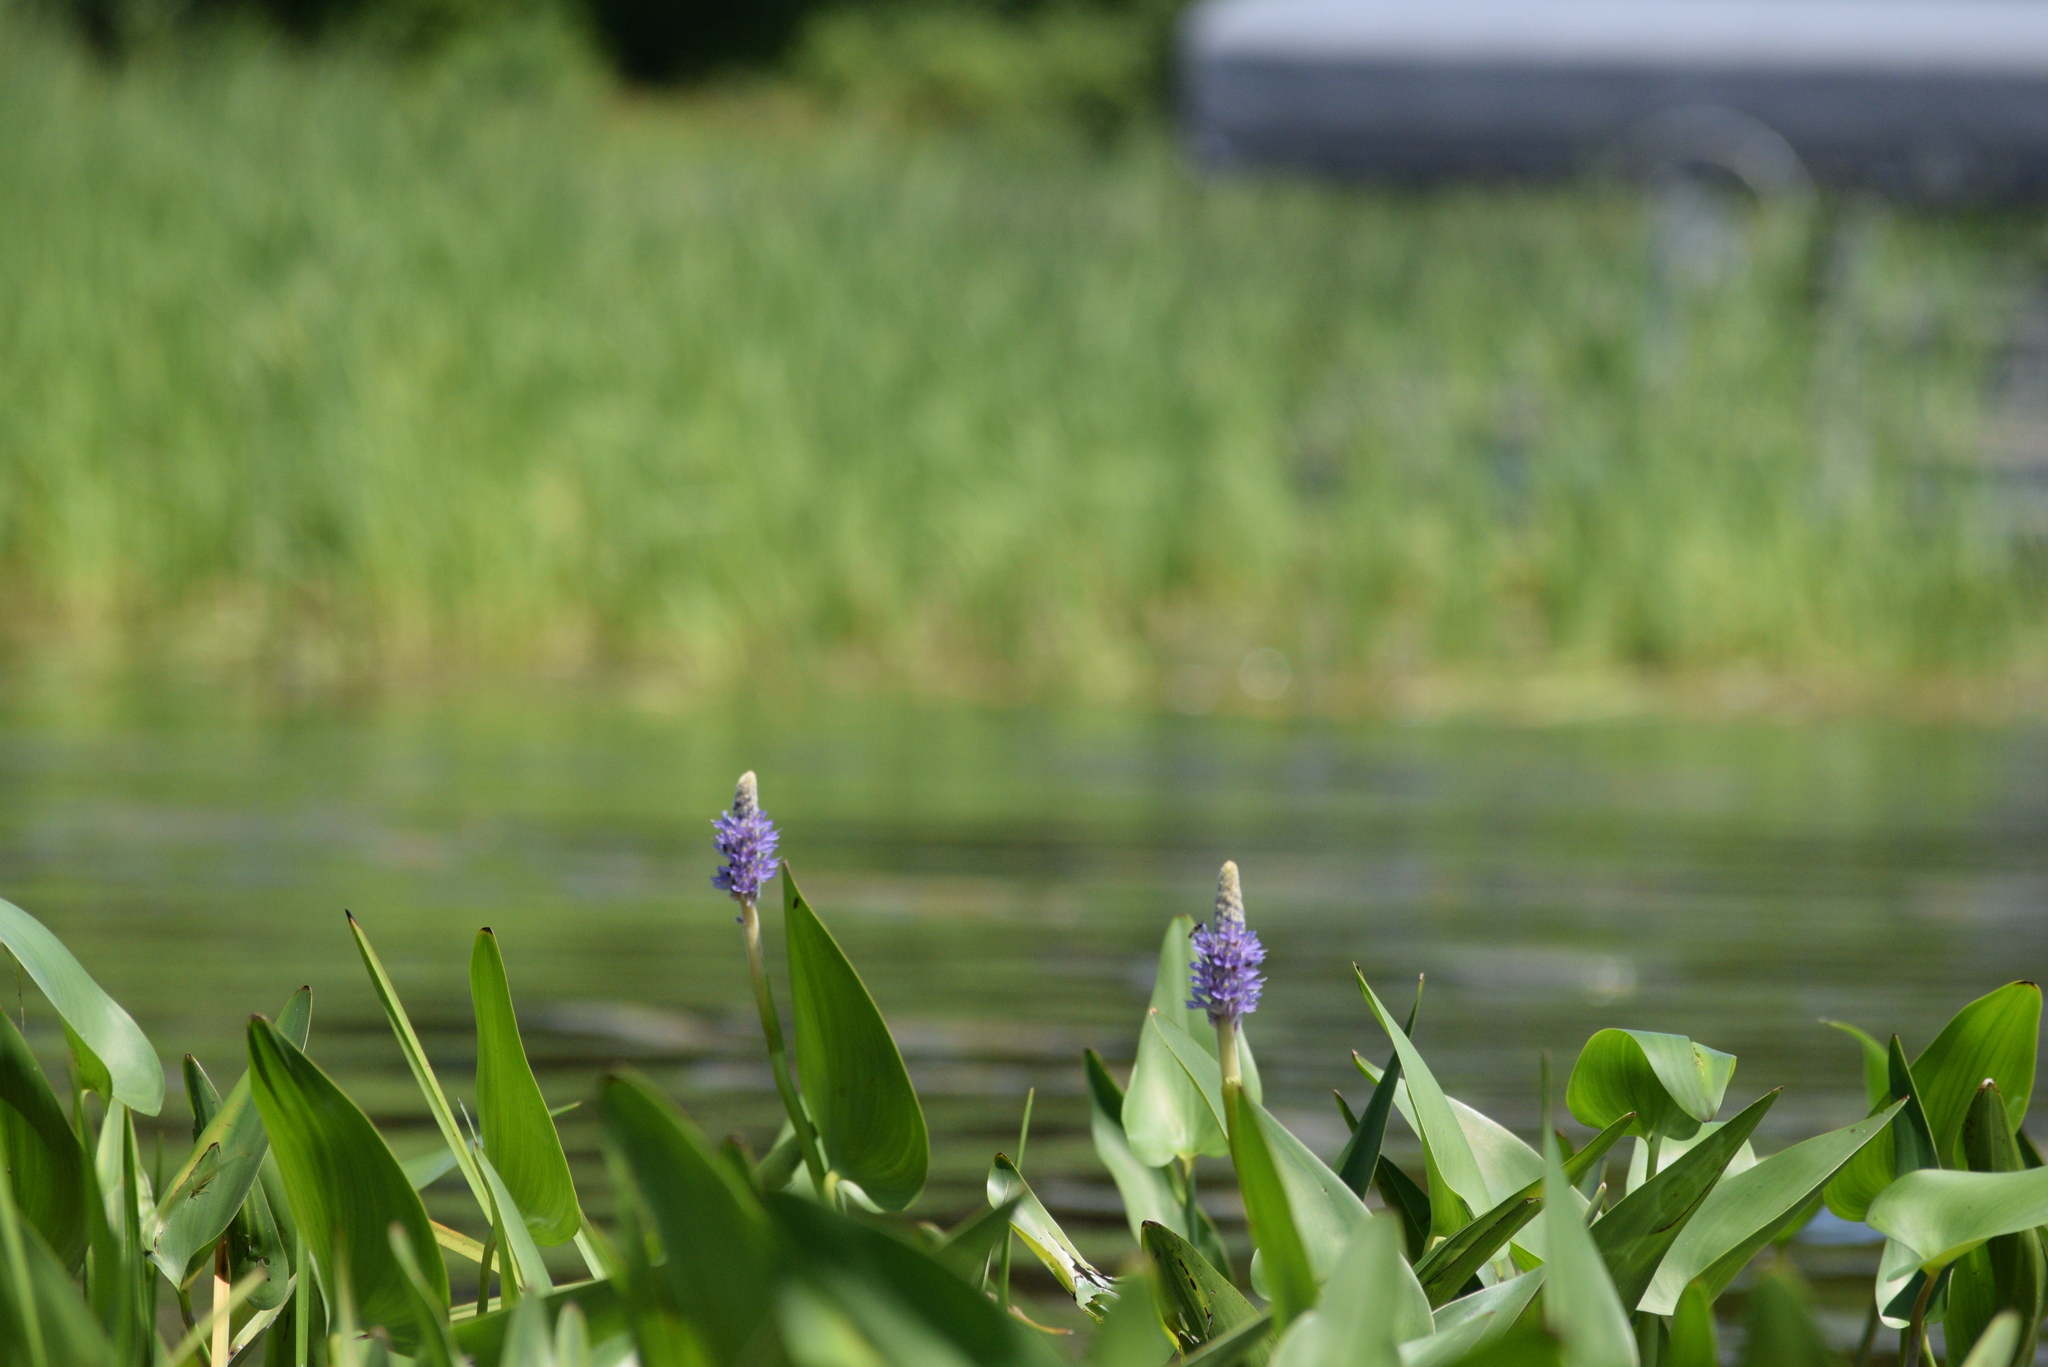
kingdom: Plantae
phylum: Tracheophyta
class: Liliopsida
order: Commelinales
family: Pontederiaceae
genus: Pontederia
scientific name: Pontederia cordata
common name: Pickerelweed
